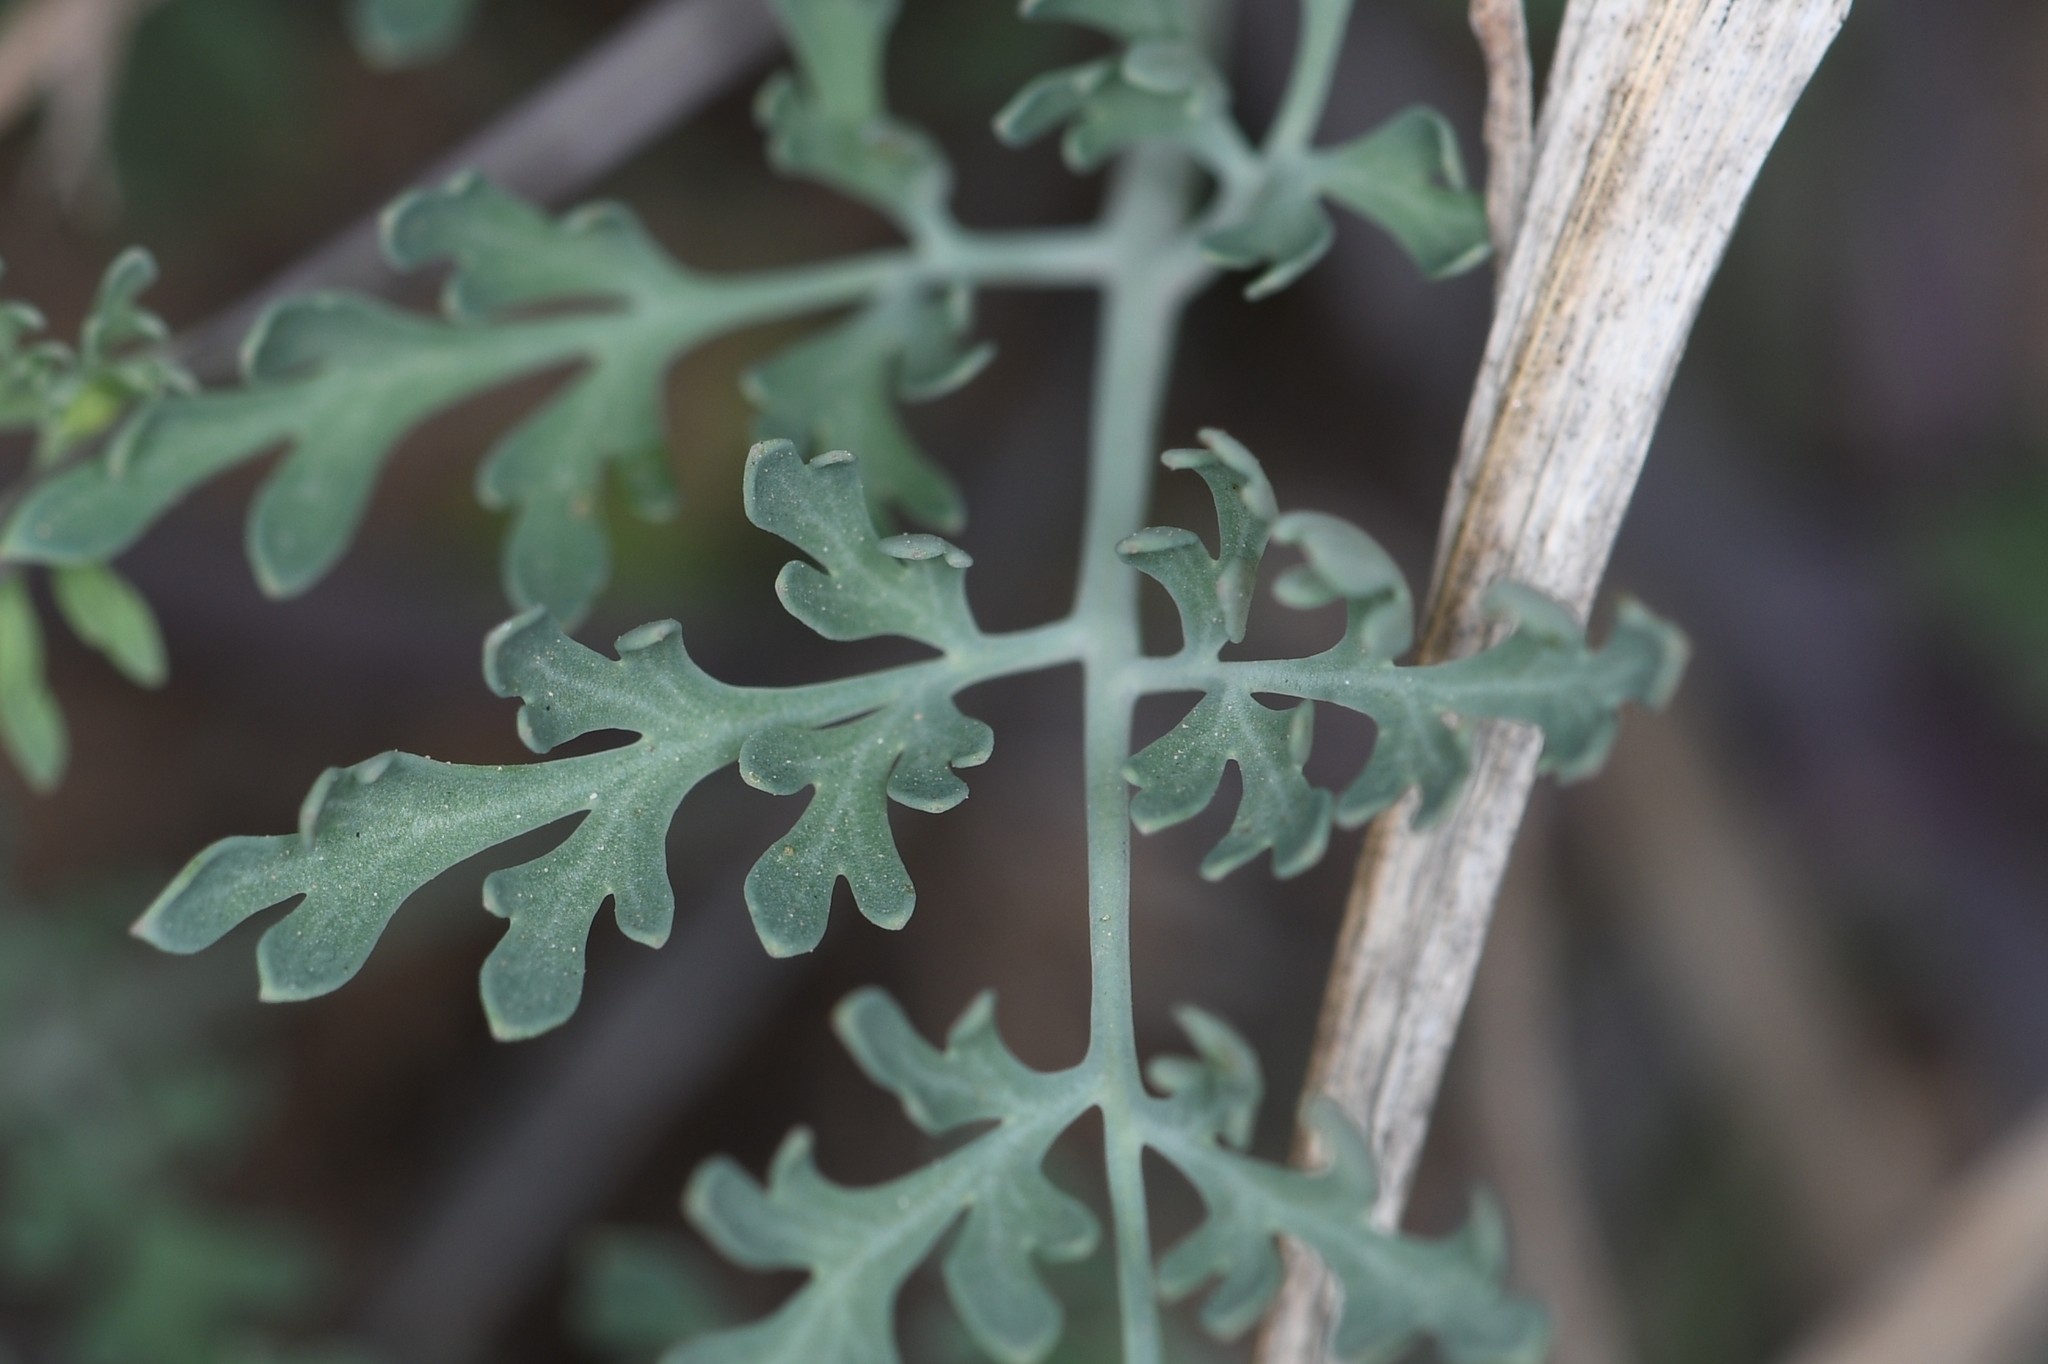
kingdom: Plantae
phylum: Tracheophyta
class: Magnoliopsida
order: Ranunculales
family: Papaveraceae
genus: Corydalis
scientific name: Corydalis aurea
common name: Golden corydalis
